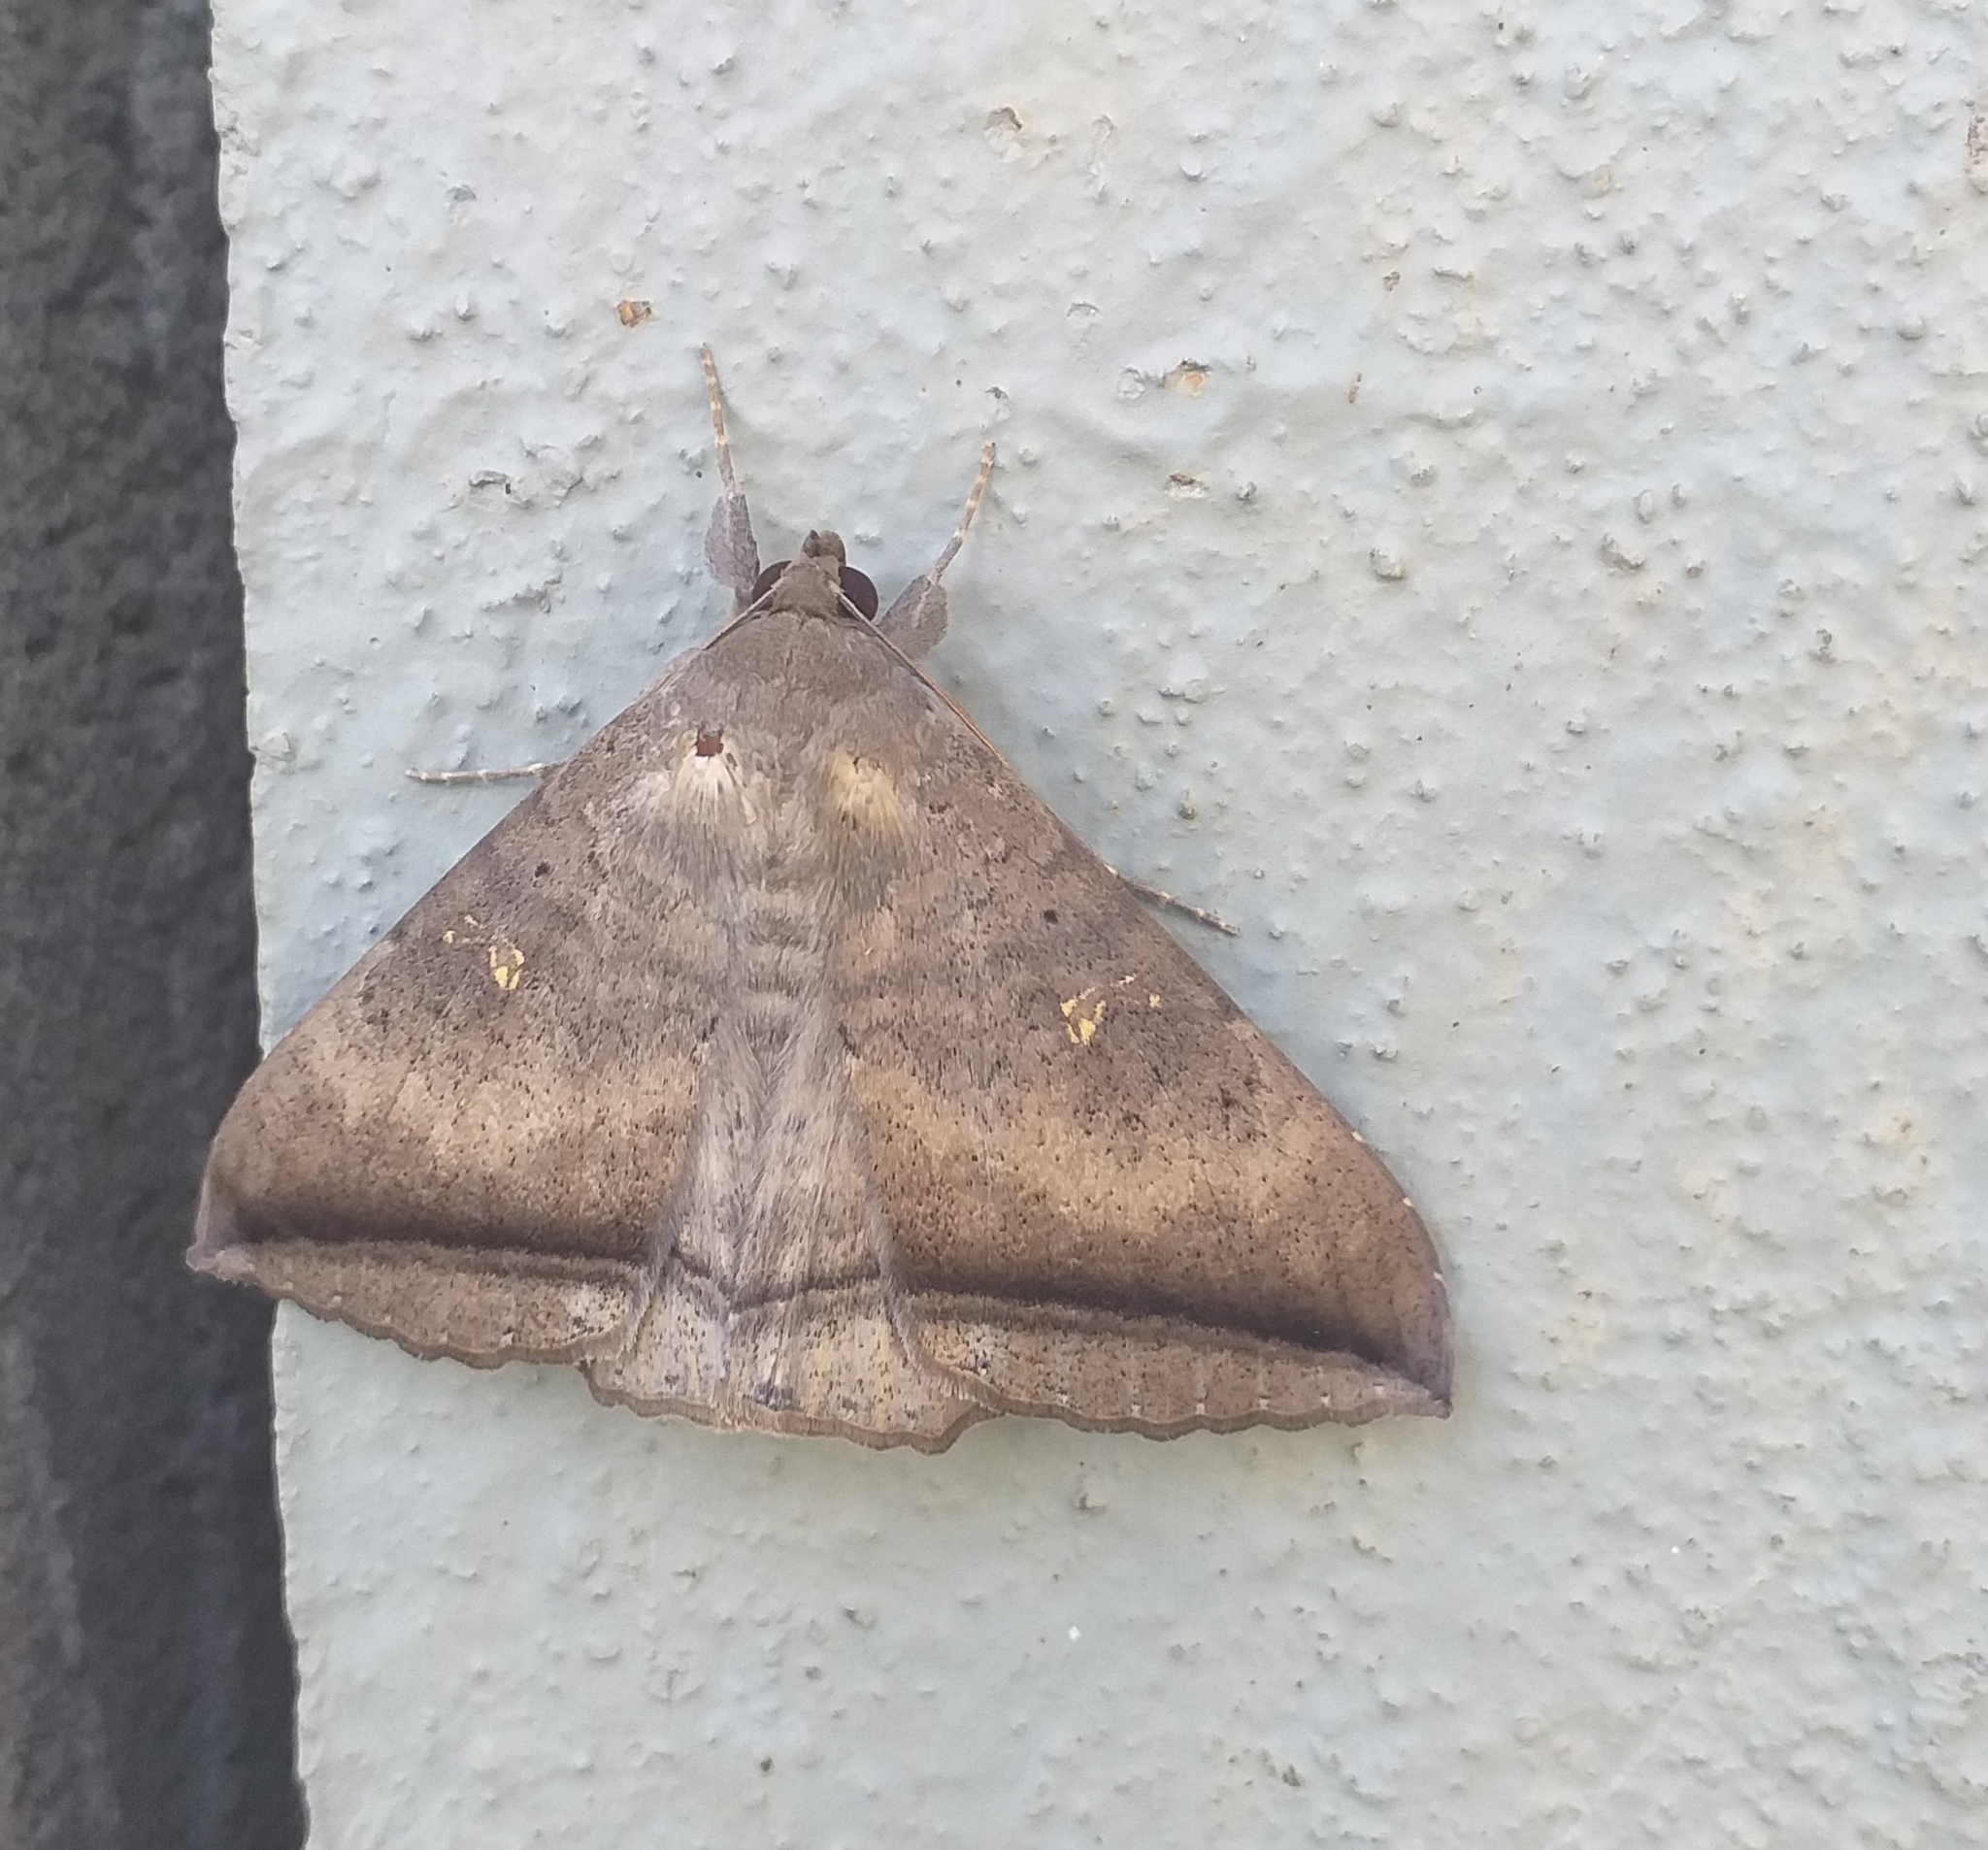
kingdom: Animalia
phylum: Arthropoda
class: Insecta
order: Lepidoptera
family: Erebidae
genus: Hulodes
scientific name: Hulodes caranea
